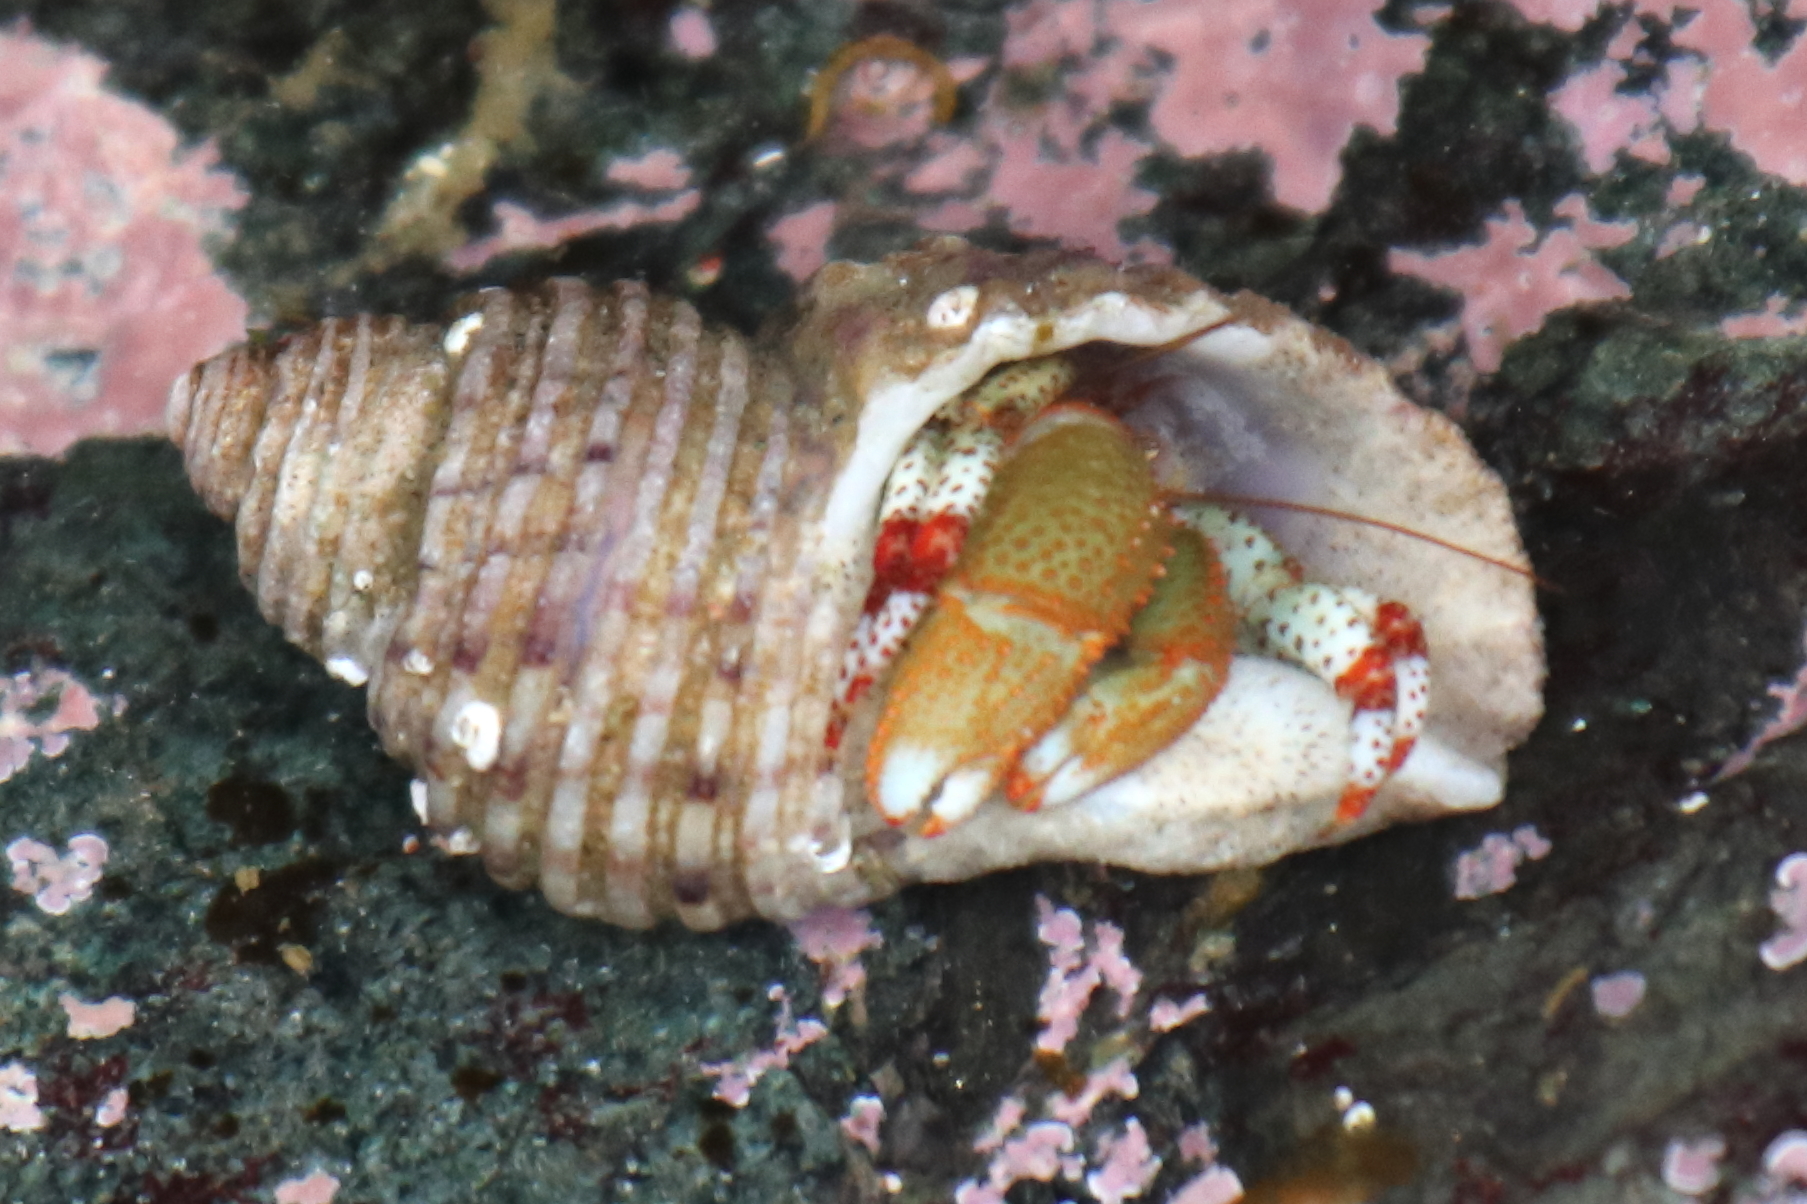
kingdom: Animalia
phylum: Arthropoda
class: Malacostraca
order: Decapoda
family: Paguridae
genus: Pagurus
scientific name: Pagurus beringanus
